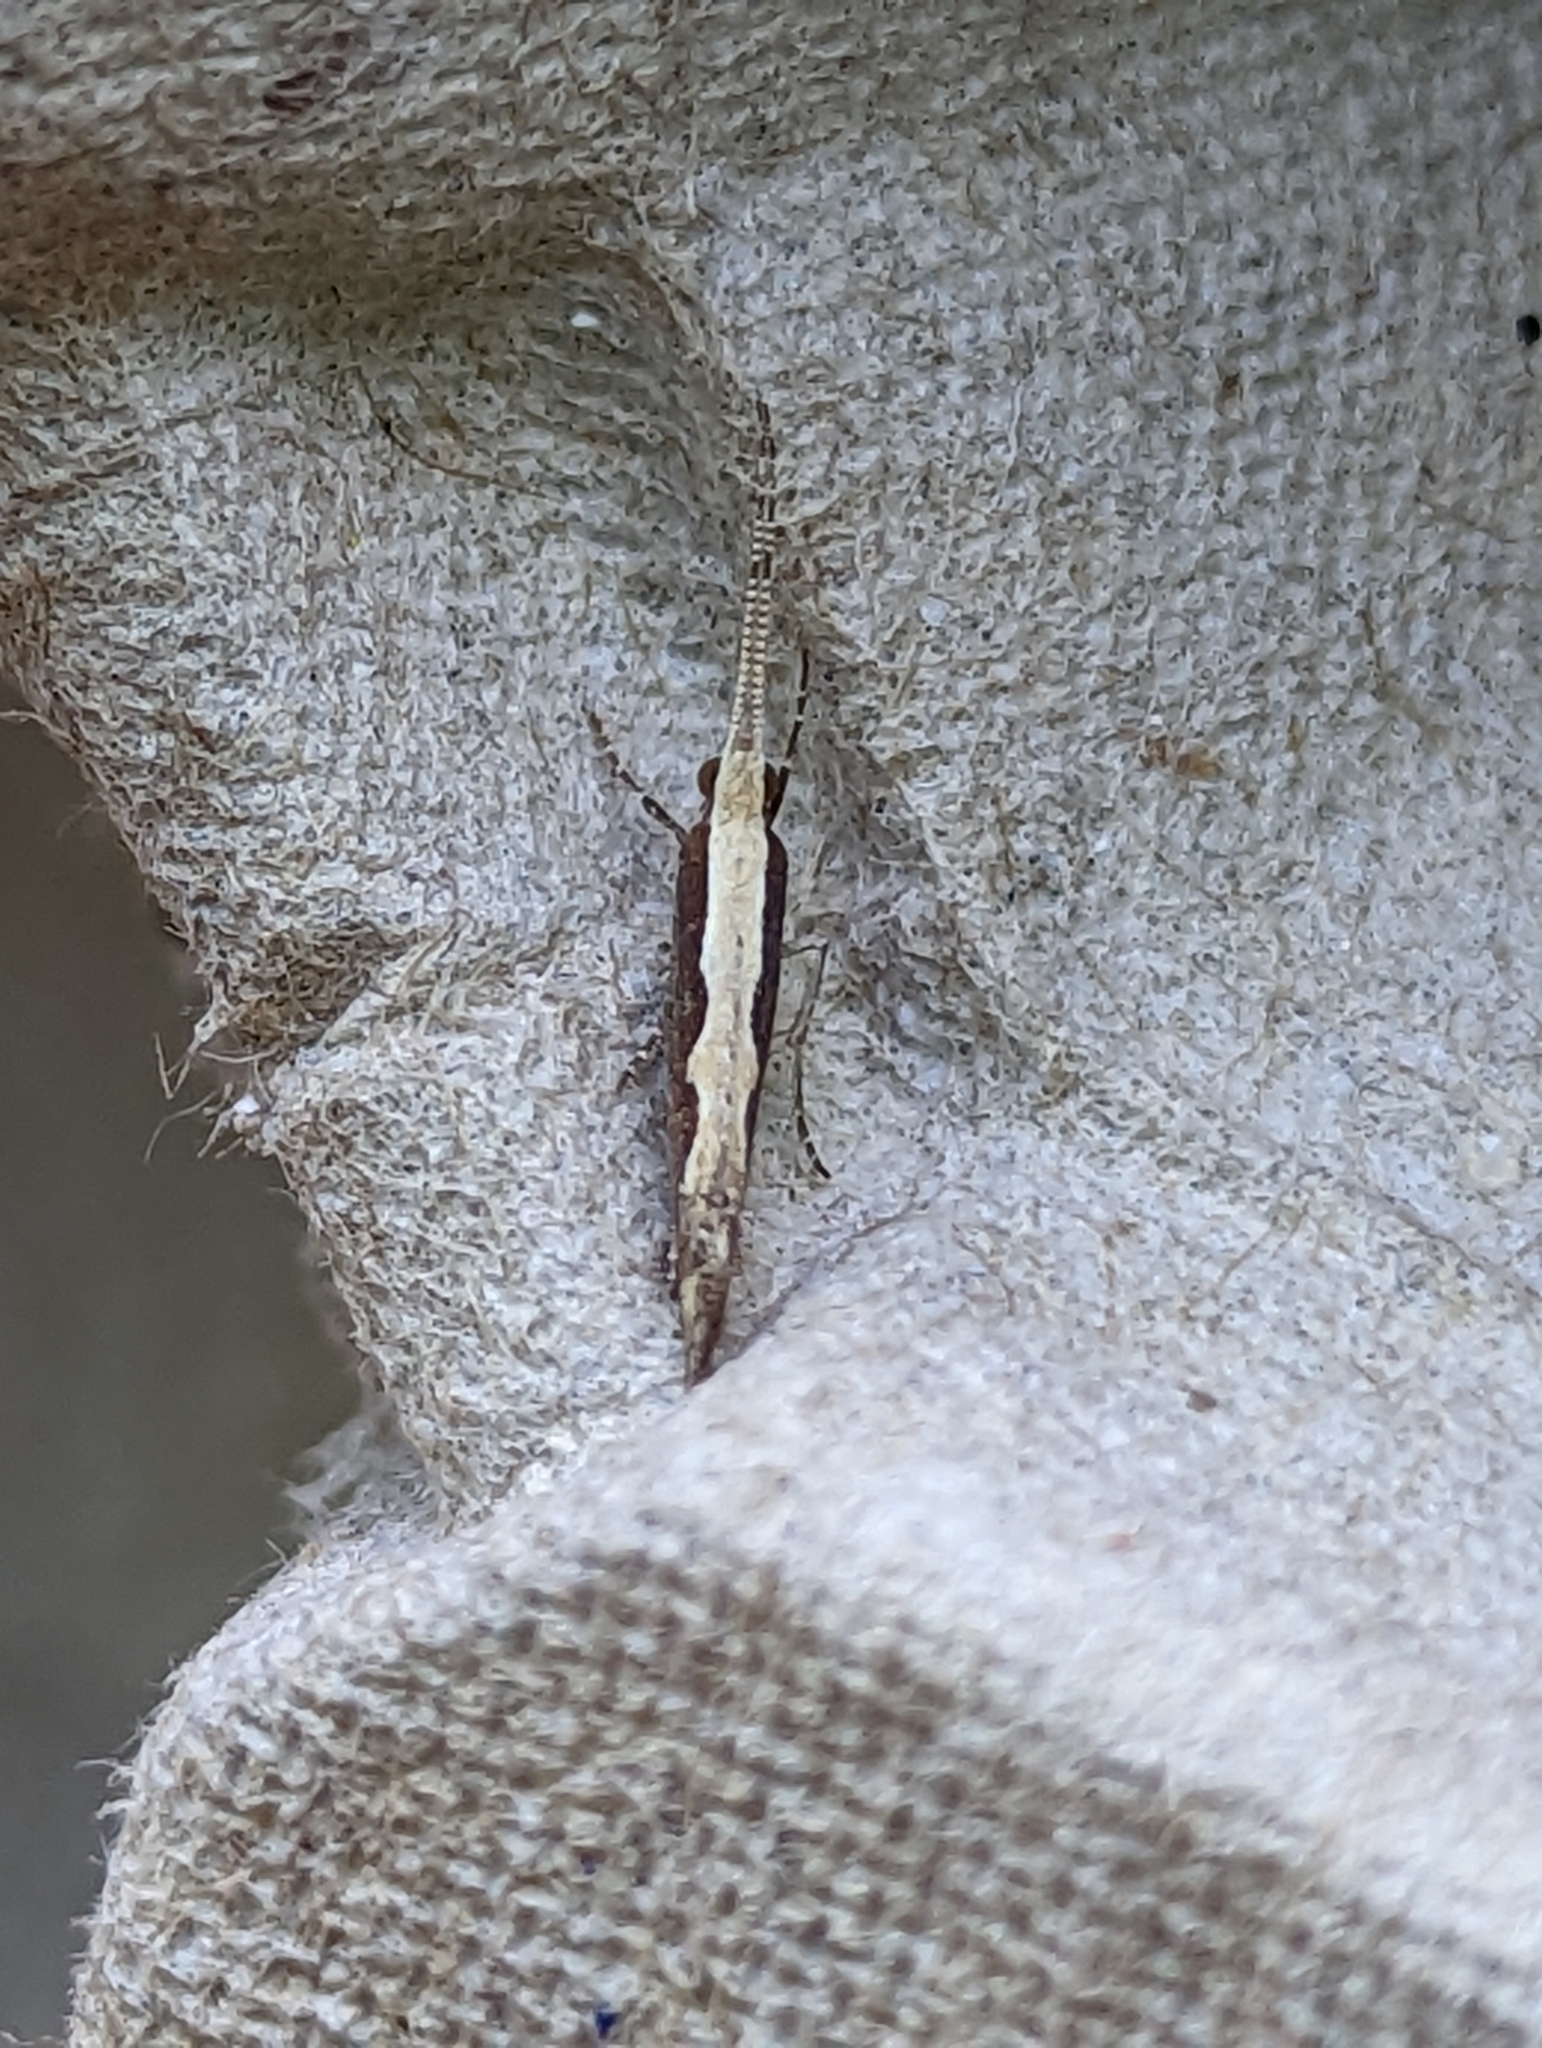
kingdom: Animalia
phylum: Arthropoda
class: Insecta
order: Lepidoptera
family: Plutellidae
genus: Plutella
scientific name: Plutella xylostella
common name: Diamond-back moth
